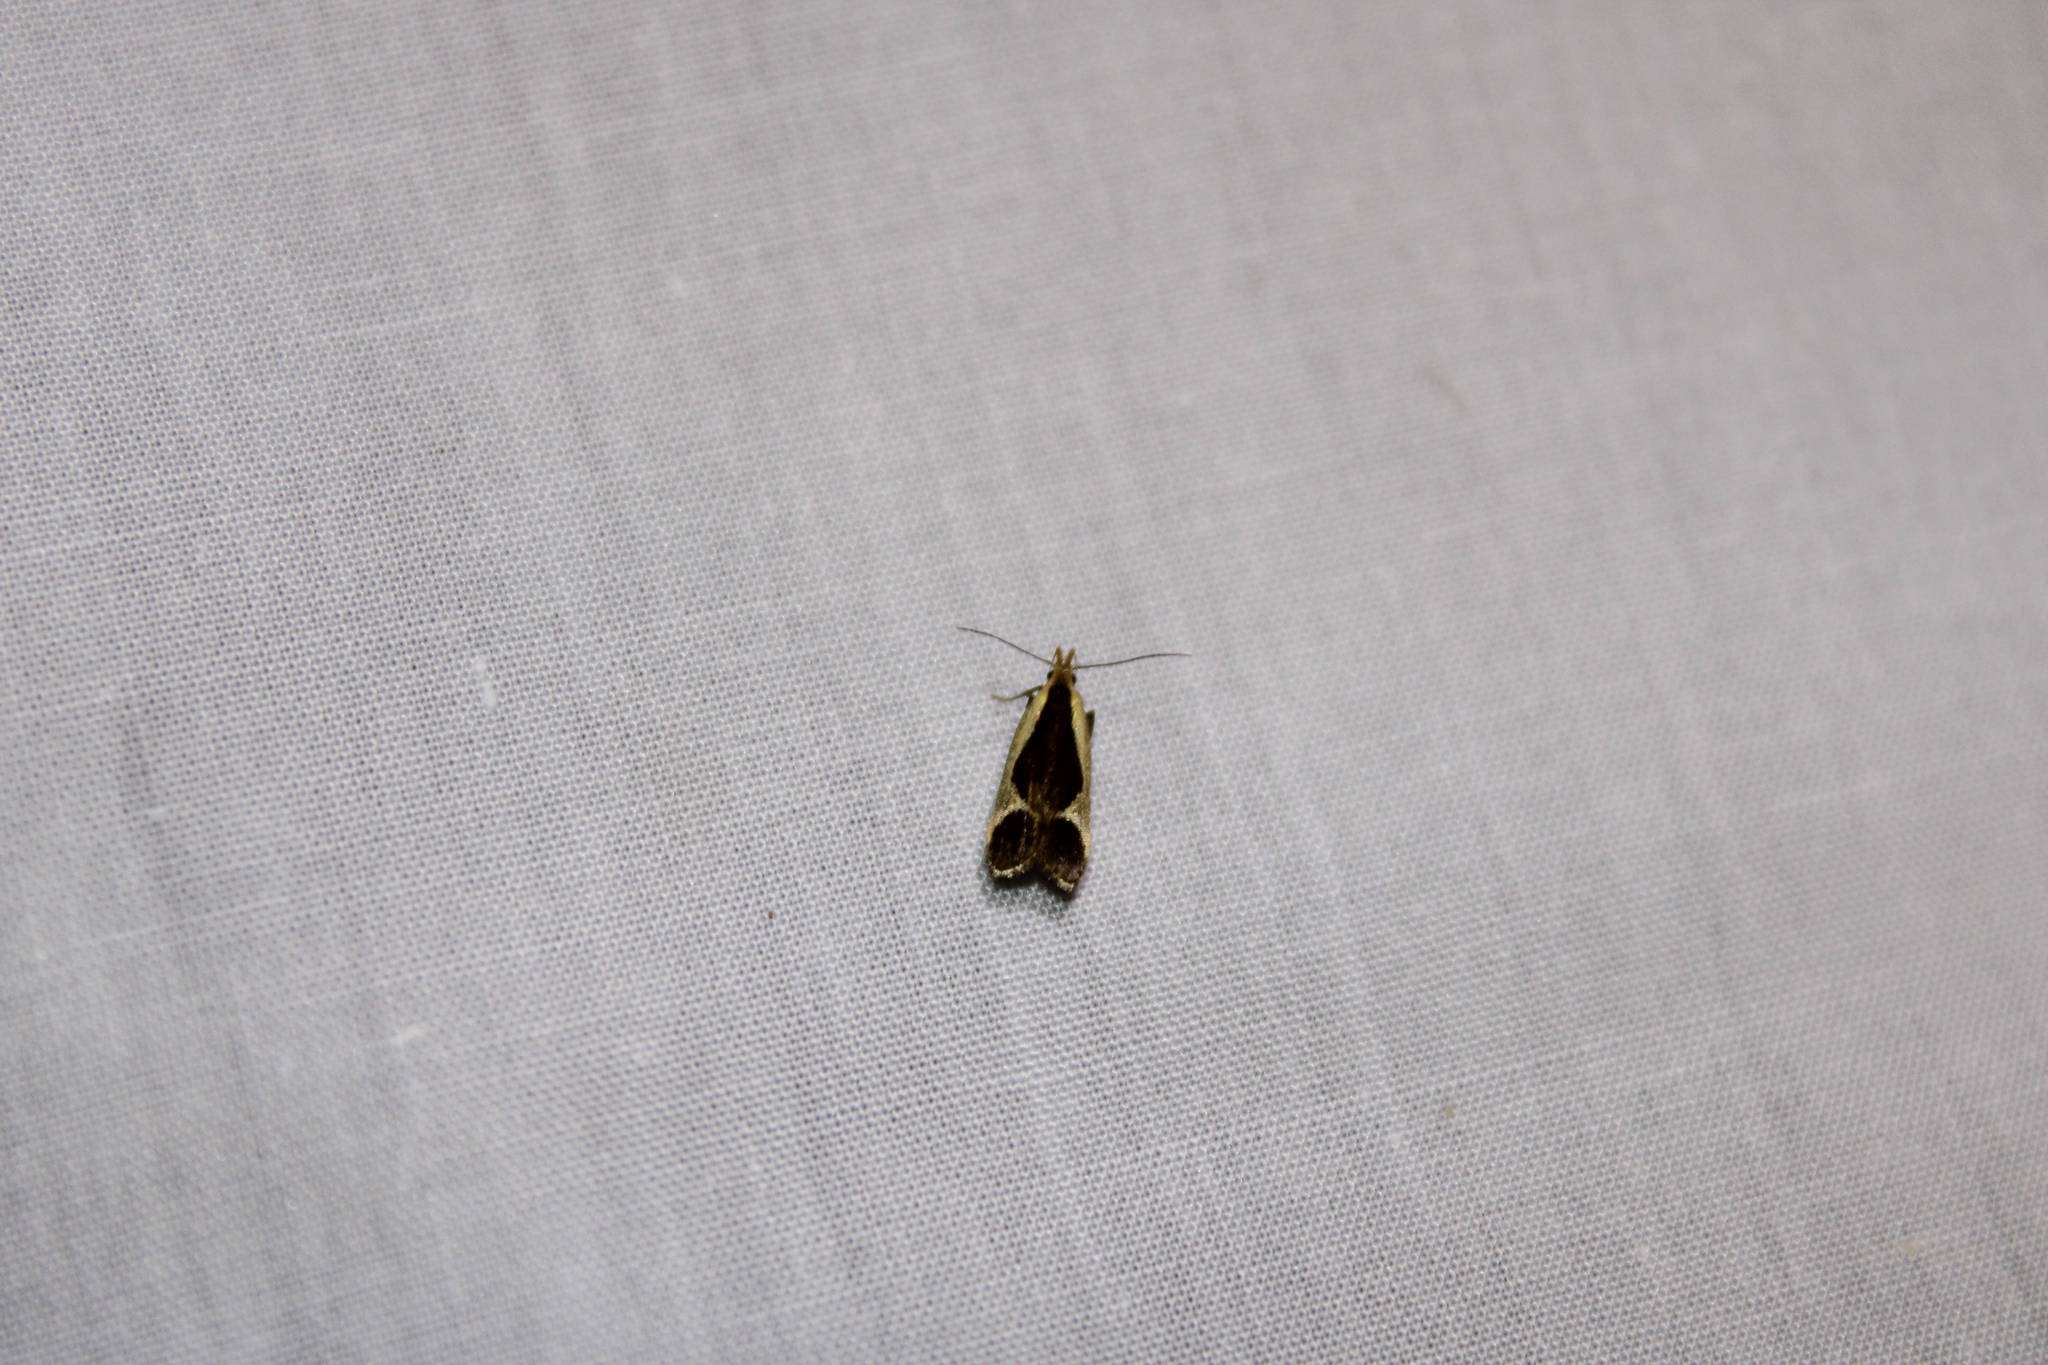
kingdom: Animalia
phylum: Arthropoda
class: Insecta
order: Lepidoptera
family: Gelechiidae
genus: Dichomeris
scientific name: Dichomeris flavocostella
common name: Cream-edged dichomeris moth
